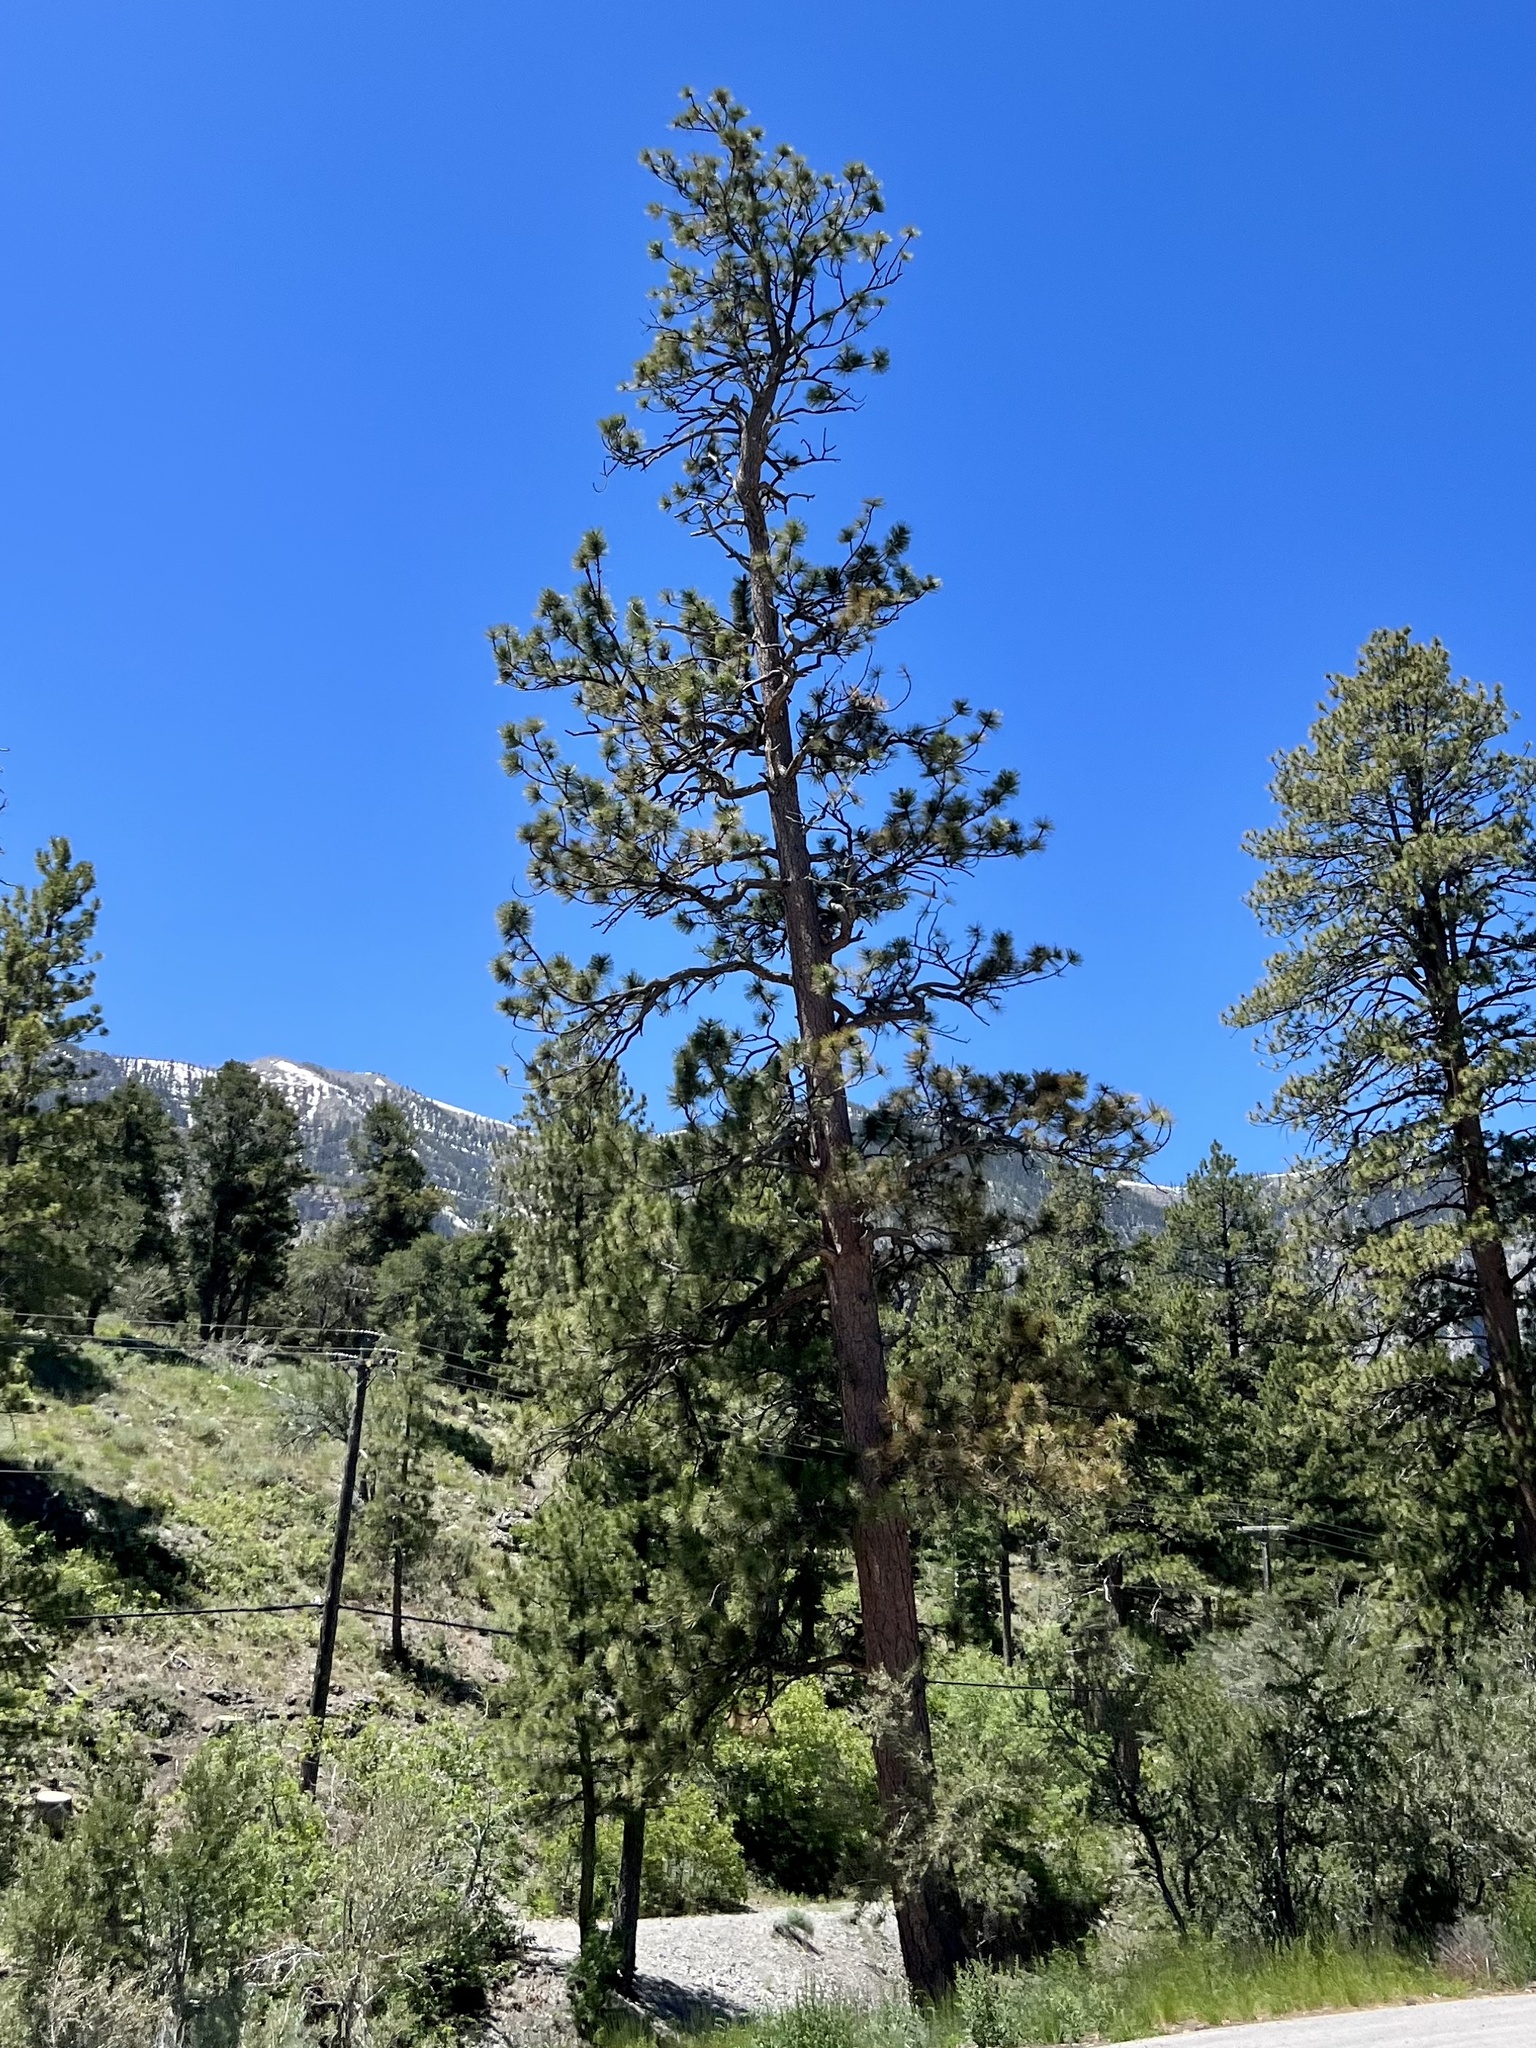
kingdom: Plantae
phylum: Tracheophyta
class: Pinopsida
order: Pinales
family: Pinaceae
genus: Pinus
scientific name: Pinus ponderosa
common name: Western yellow-pine
